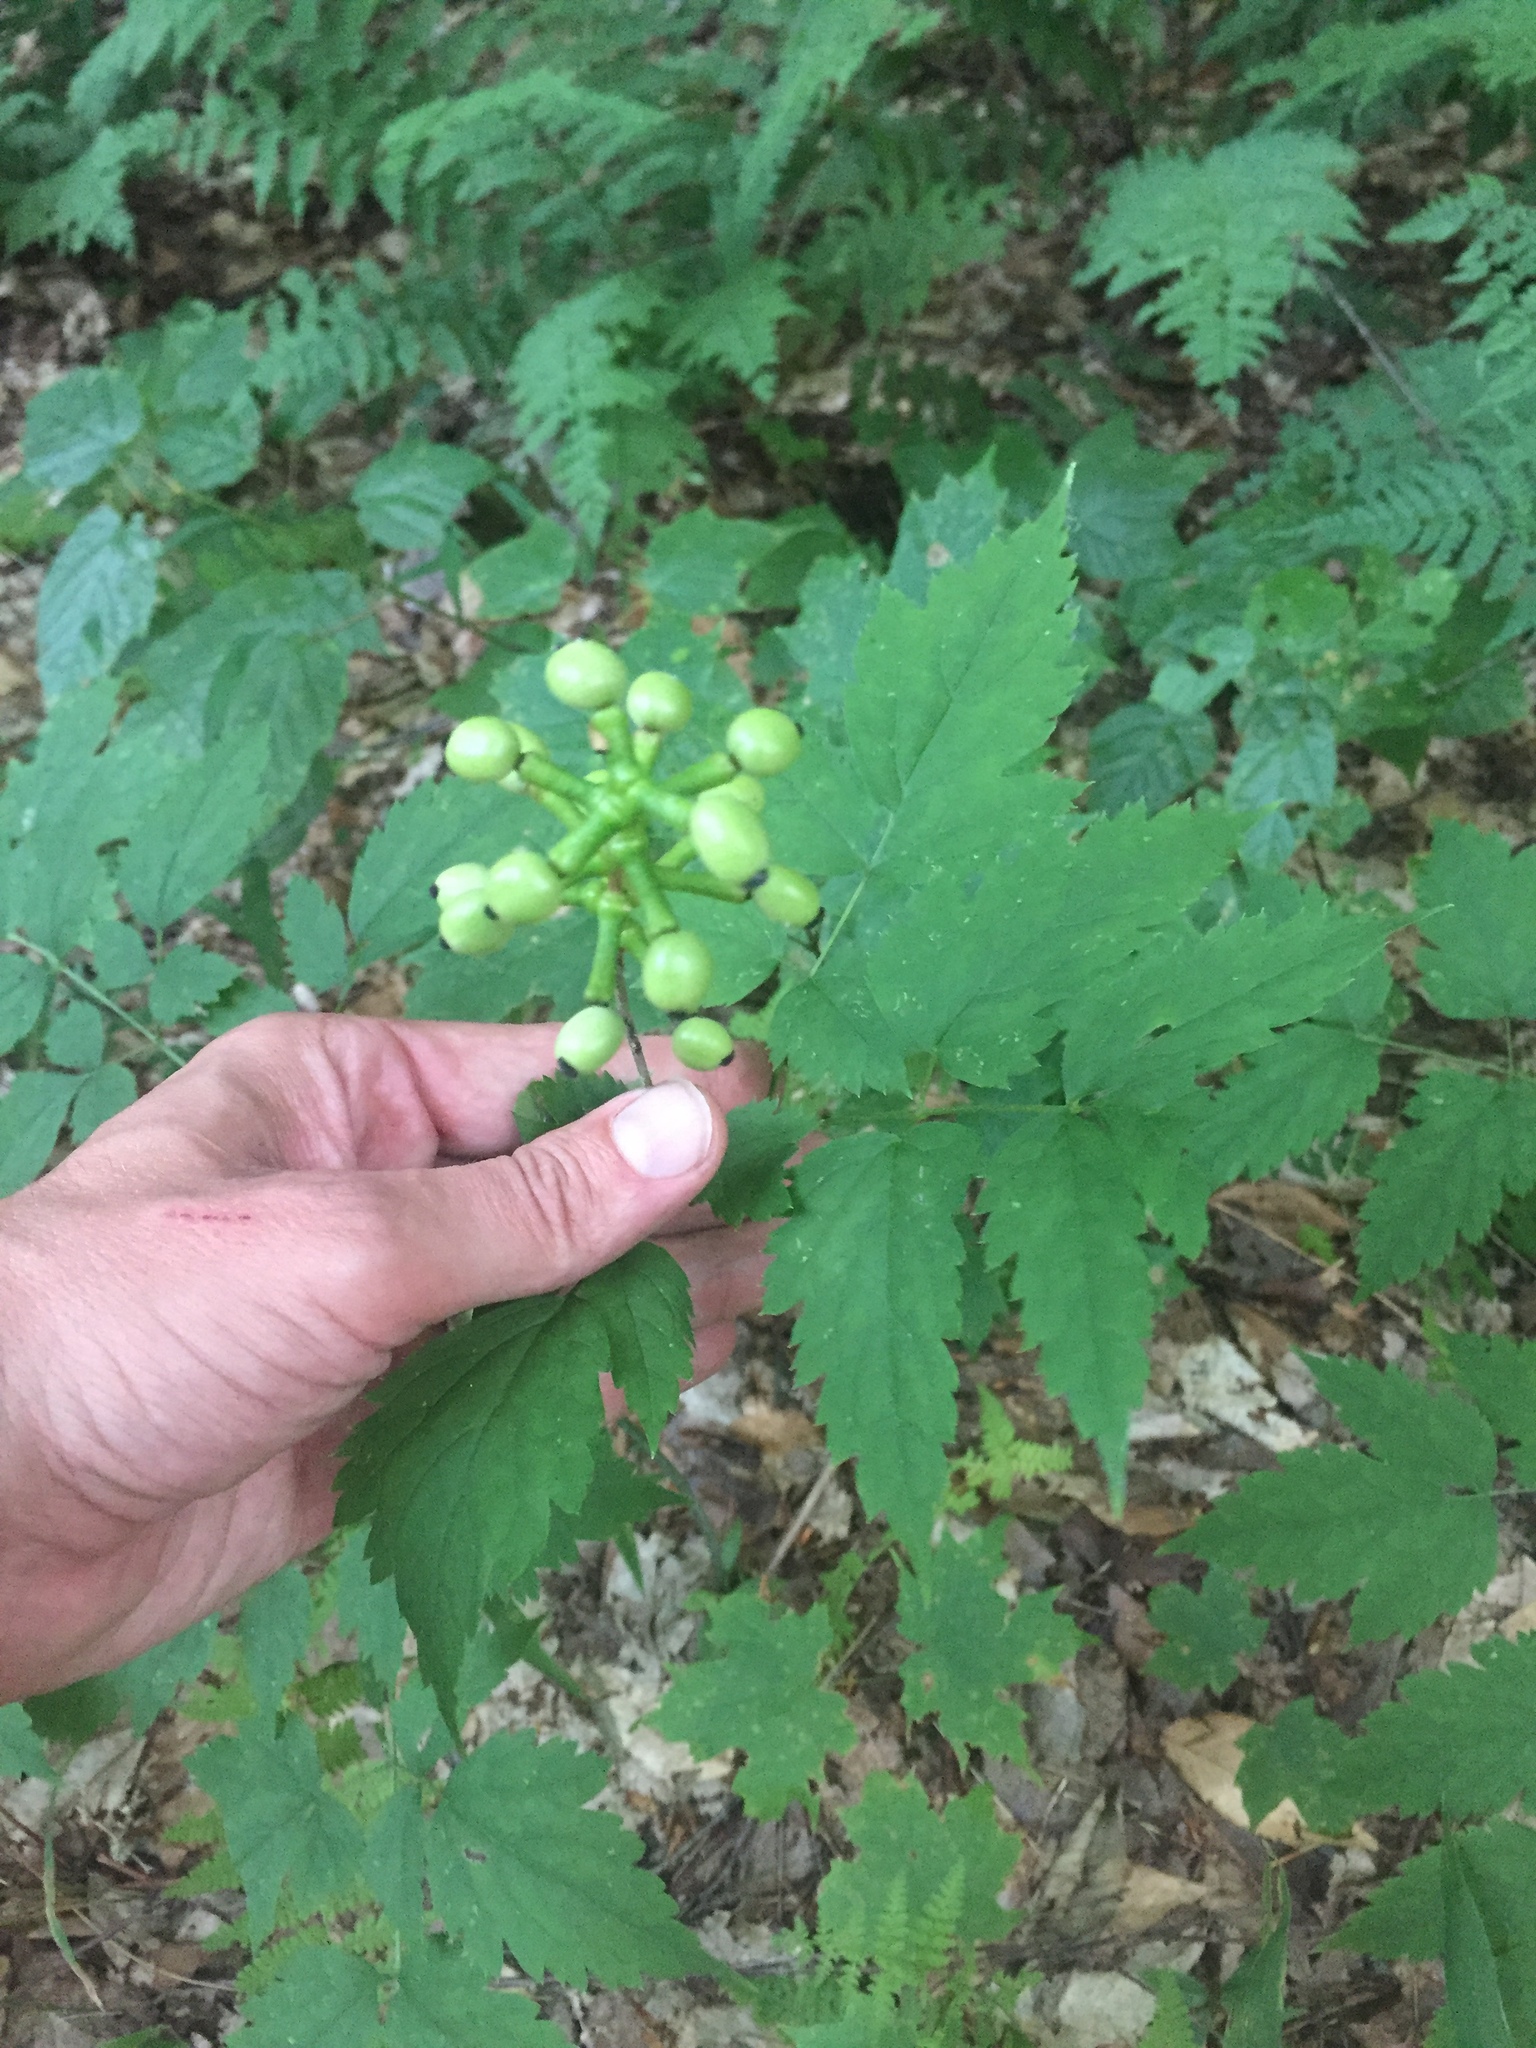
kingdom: Plantae
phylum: Tracheophyta
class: Magnoliopsida
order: Ranunculales
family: Ranunculaceae
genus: Actaea
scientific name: Actaea pachypoda
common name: Doll's-eyes
